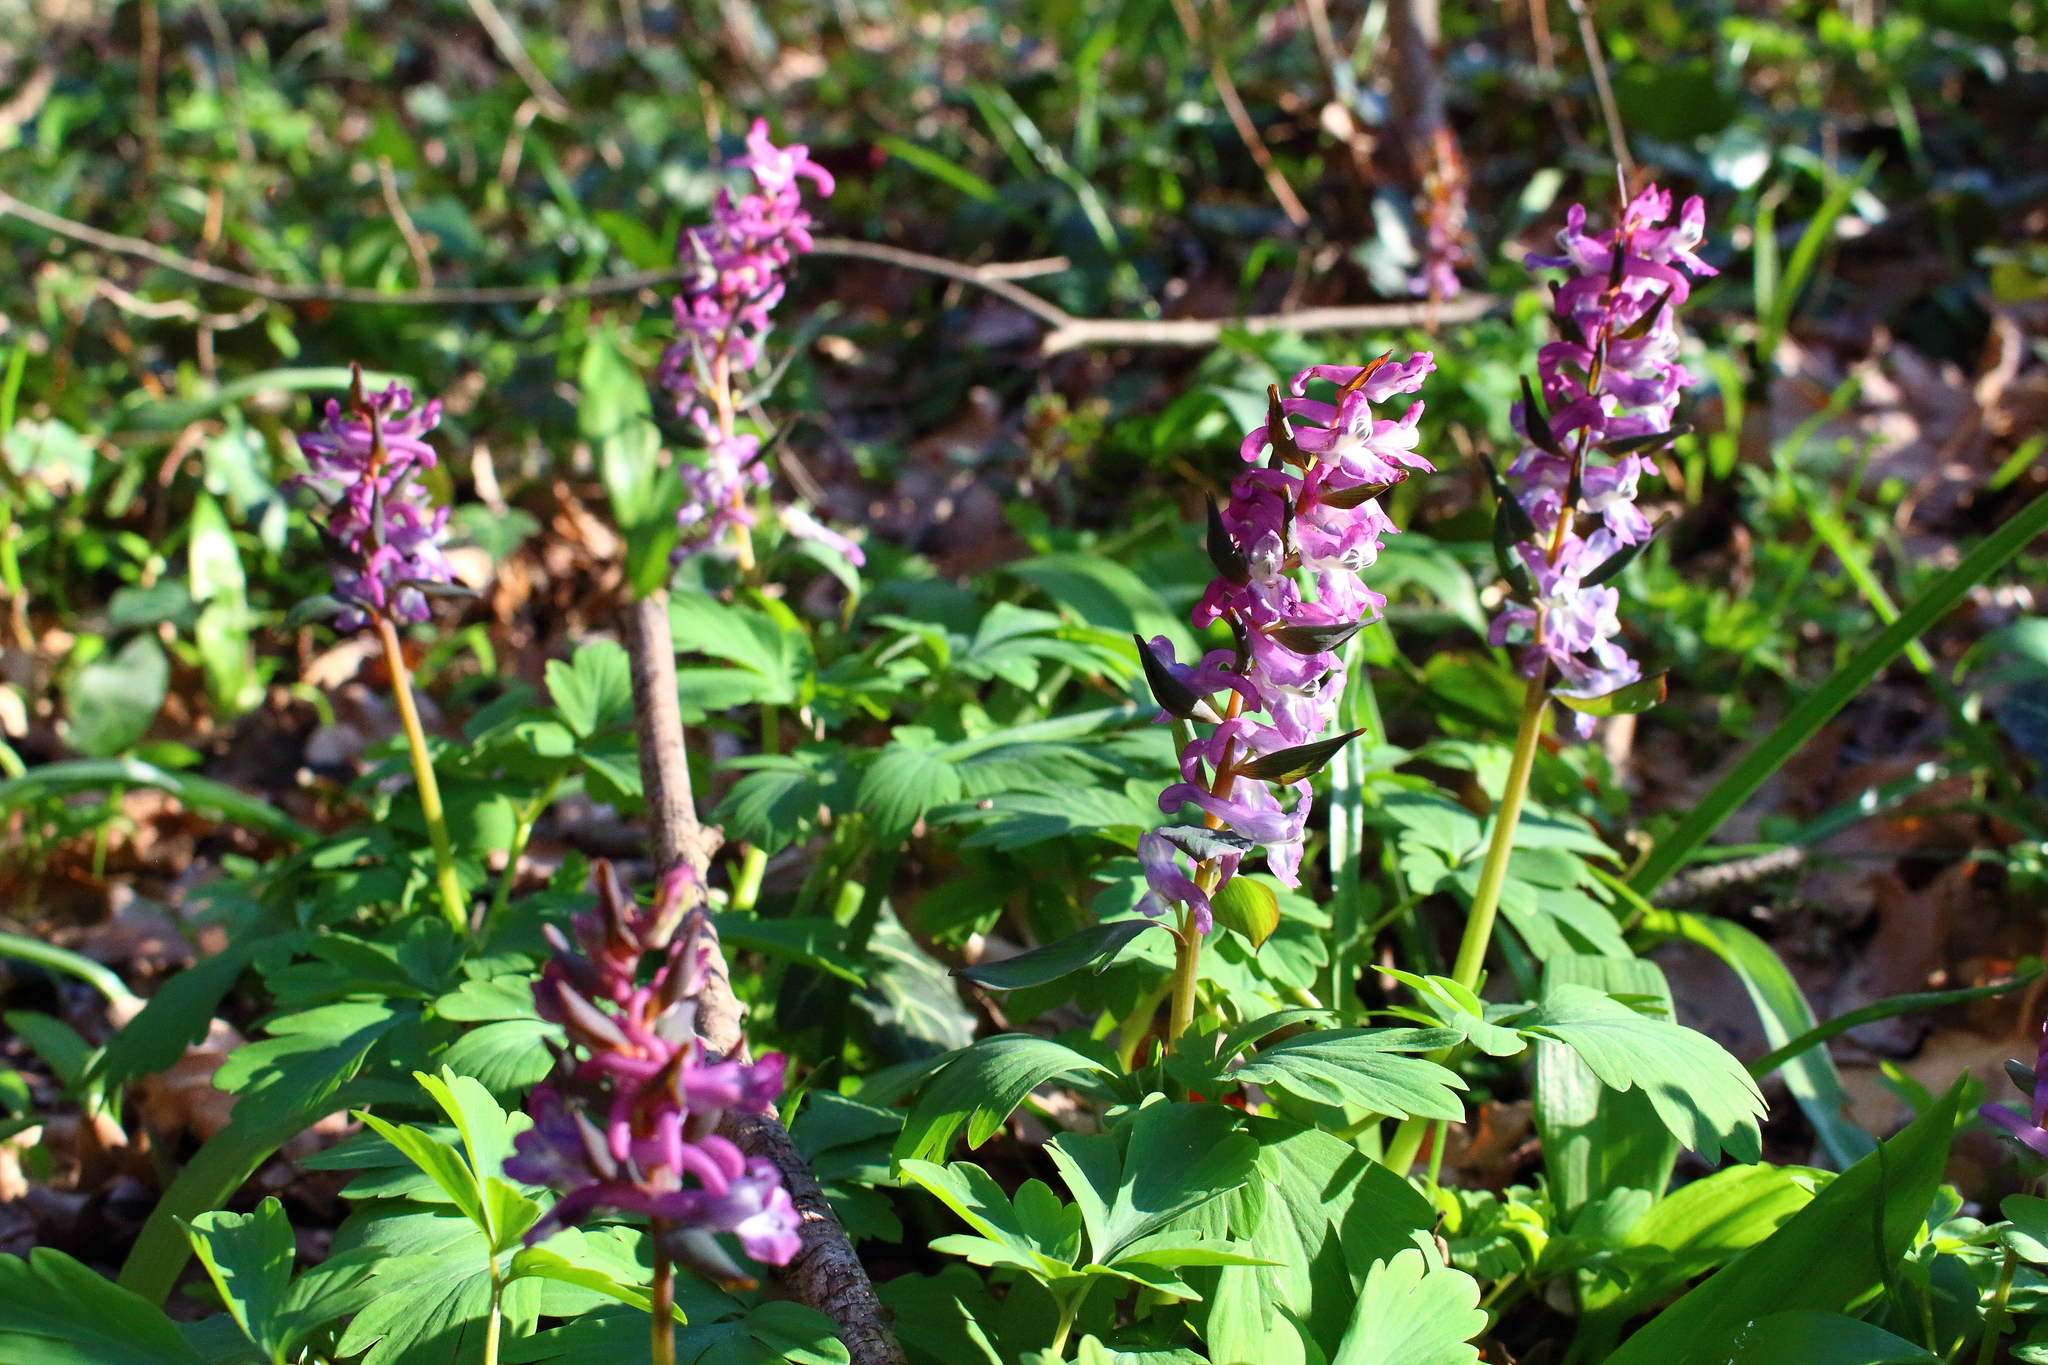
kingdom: Plantae
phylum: Tracheophyta
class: Magnoliopsida
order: Ranunculales
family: Papaveraceae
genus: Corydalis
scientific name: Corydalis cava
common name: Hollowroot
